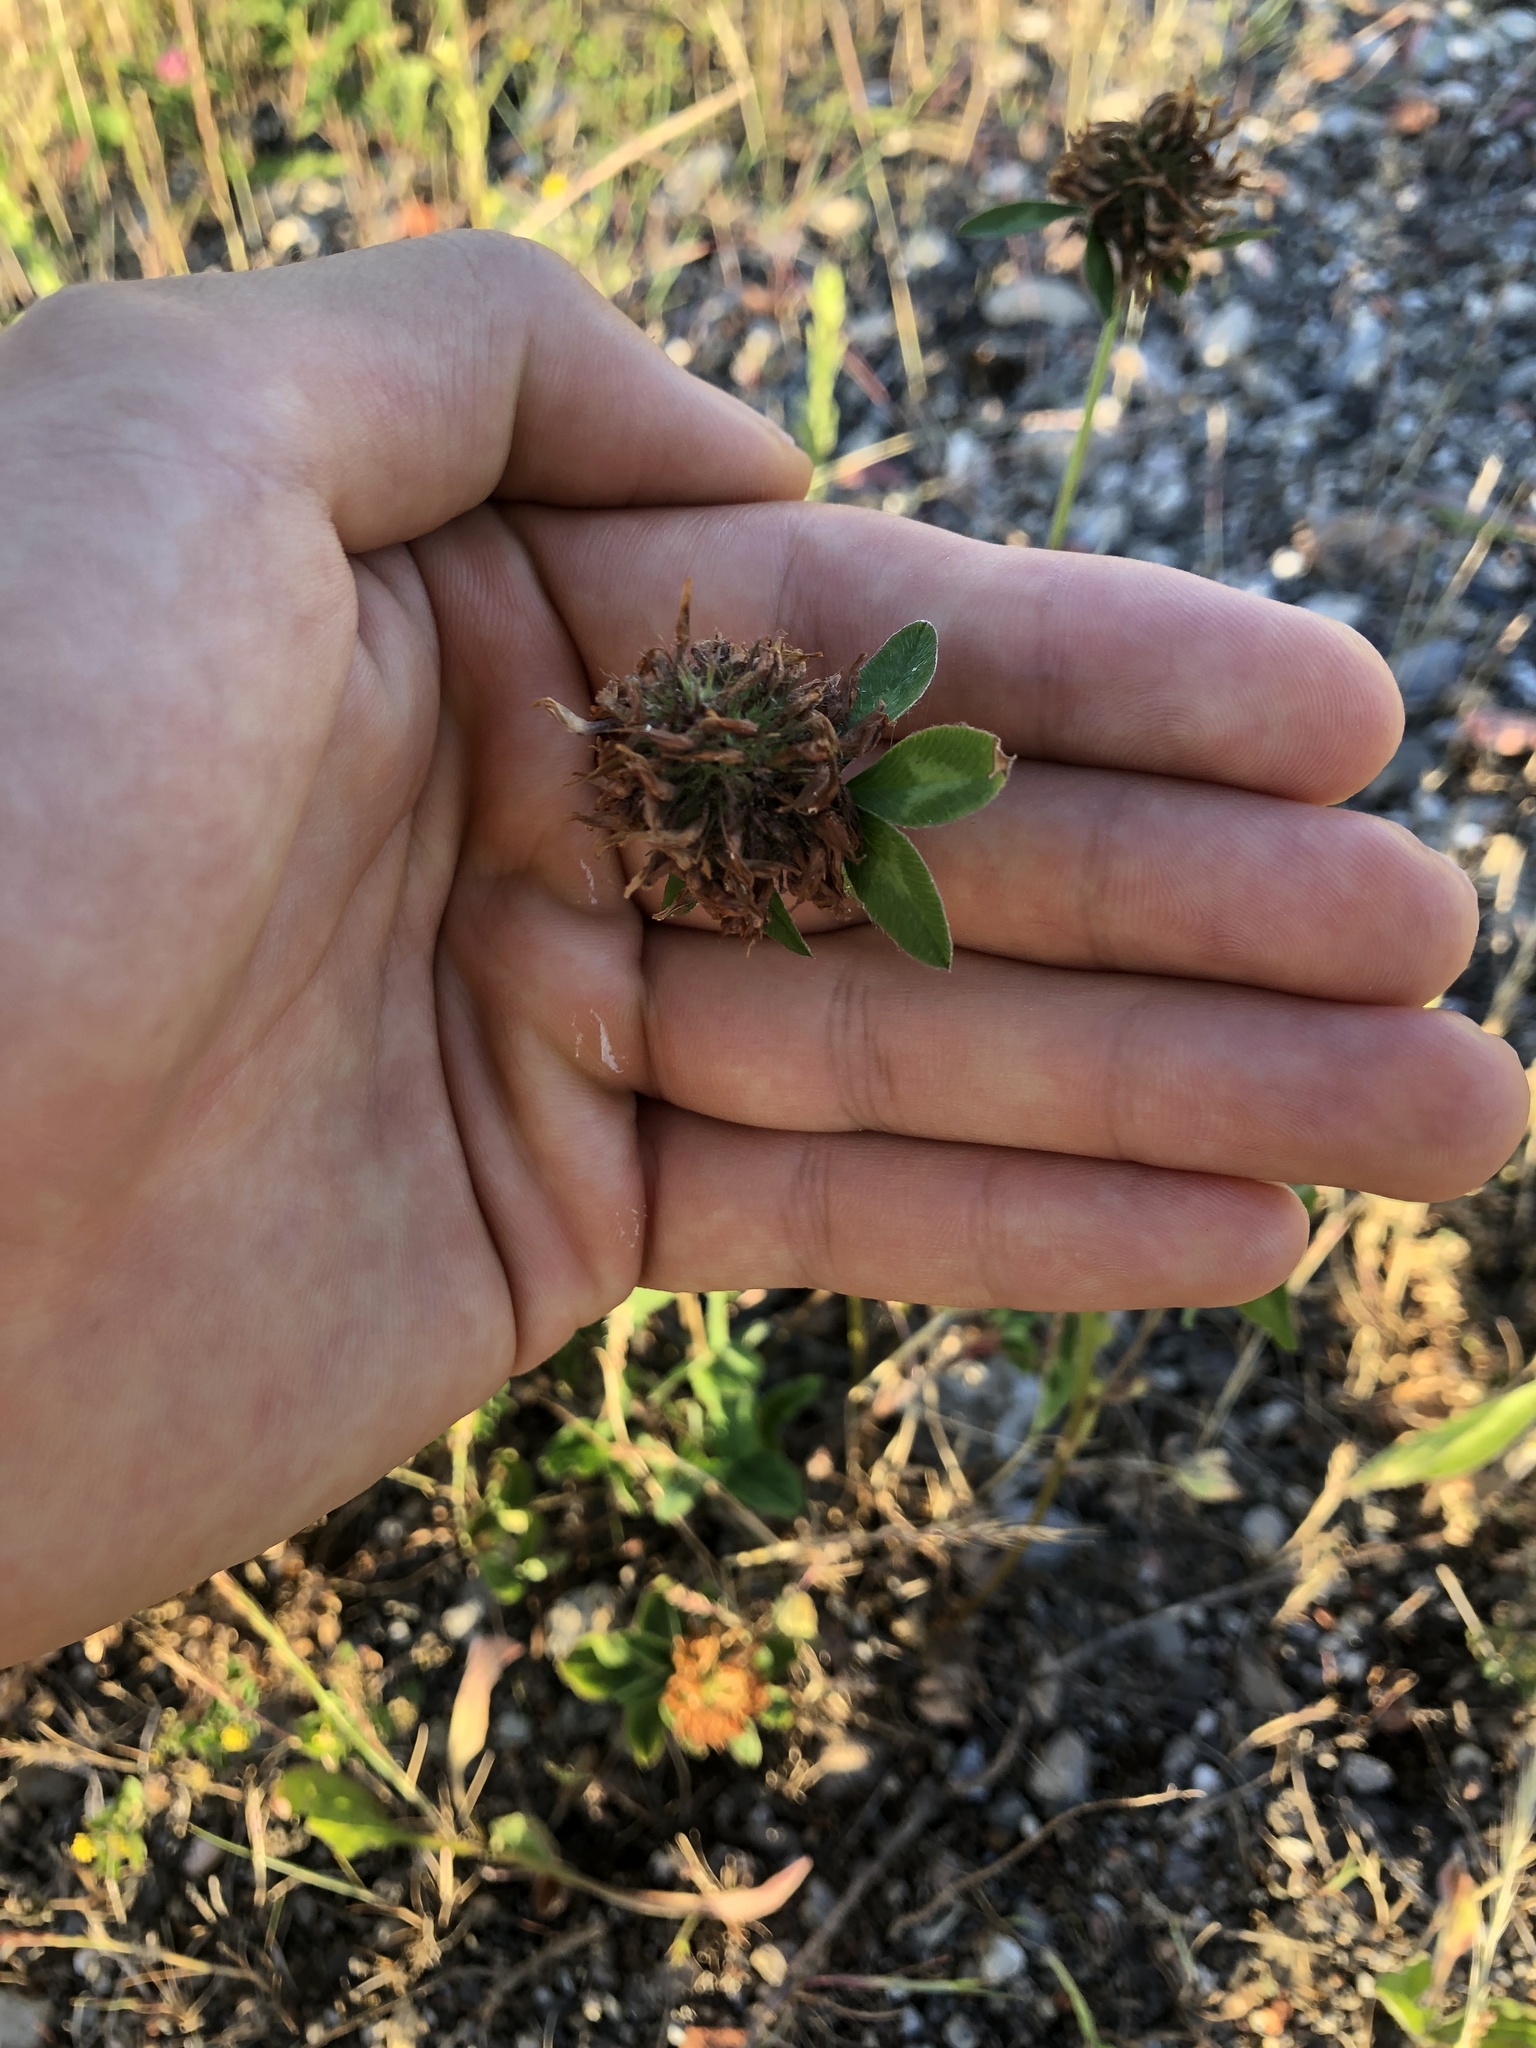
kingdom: Plantae
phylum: Tracheophyta
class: Magnoliopsida
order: Fabales
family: Fabaceae
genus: Trifolium
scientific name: Trifolium pratense
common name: Red clover
